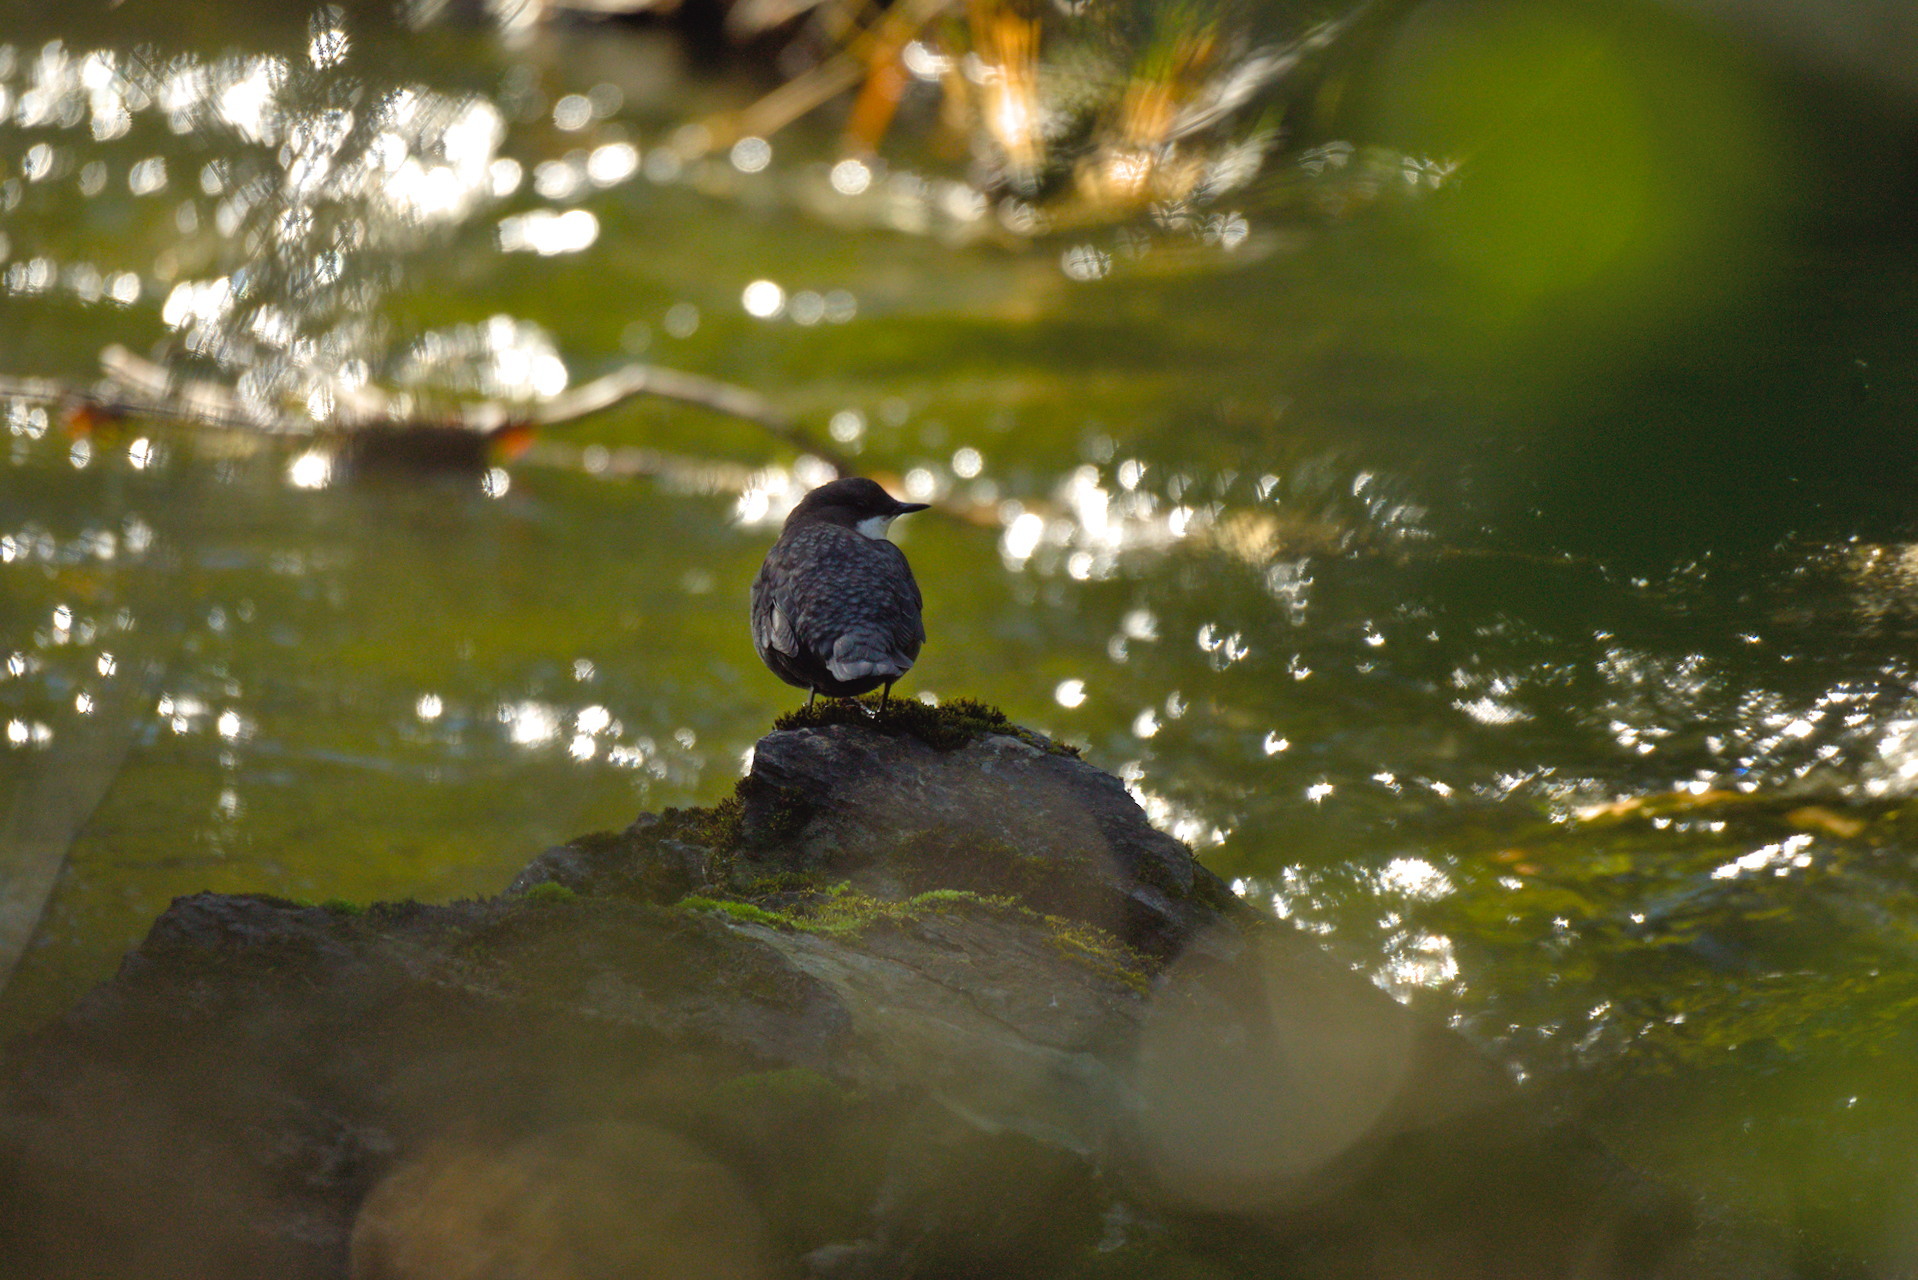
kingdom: Animalia
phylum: Chordata
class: Aves
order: Passeriformes
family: Cinclidae
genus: Cinclus
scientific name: Cinclus cinclus
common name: White-throated dipper
